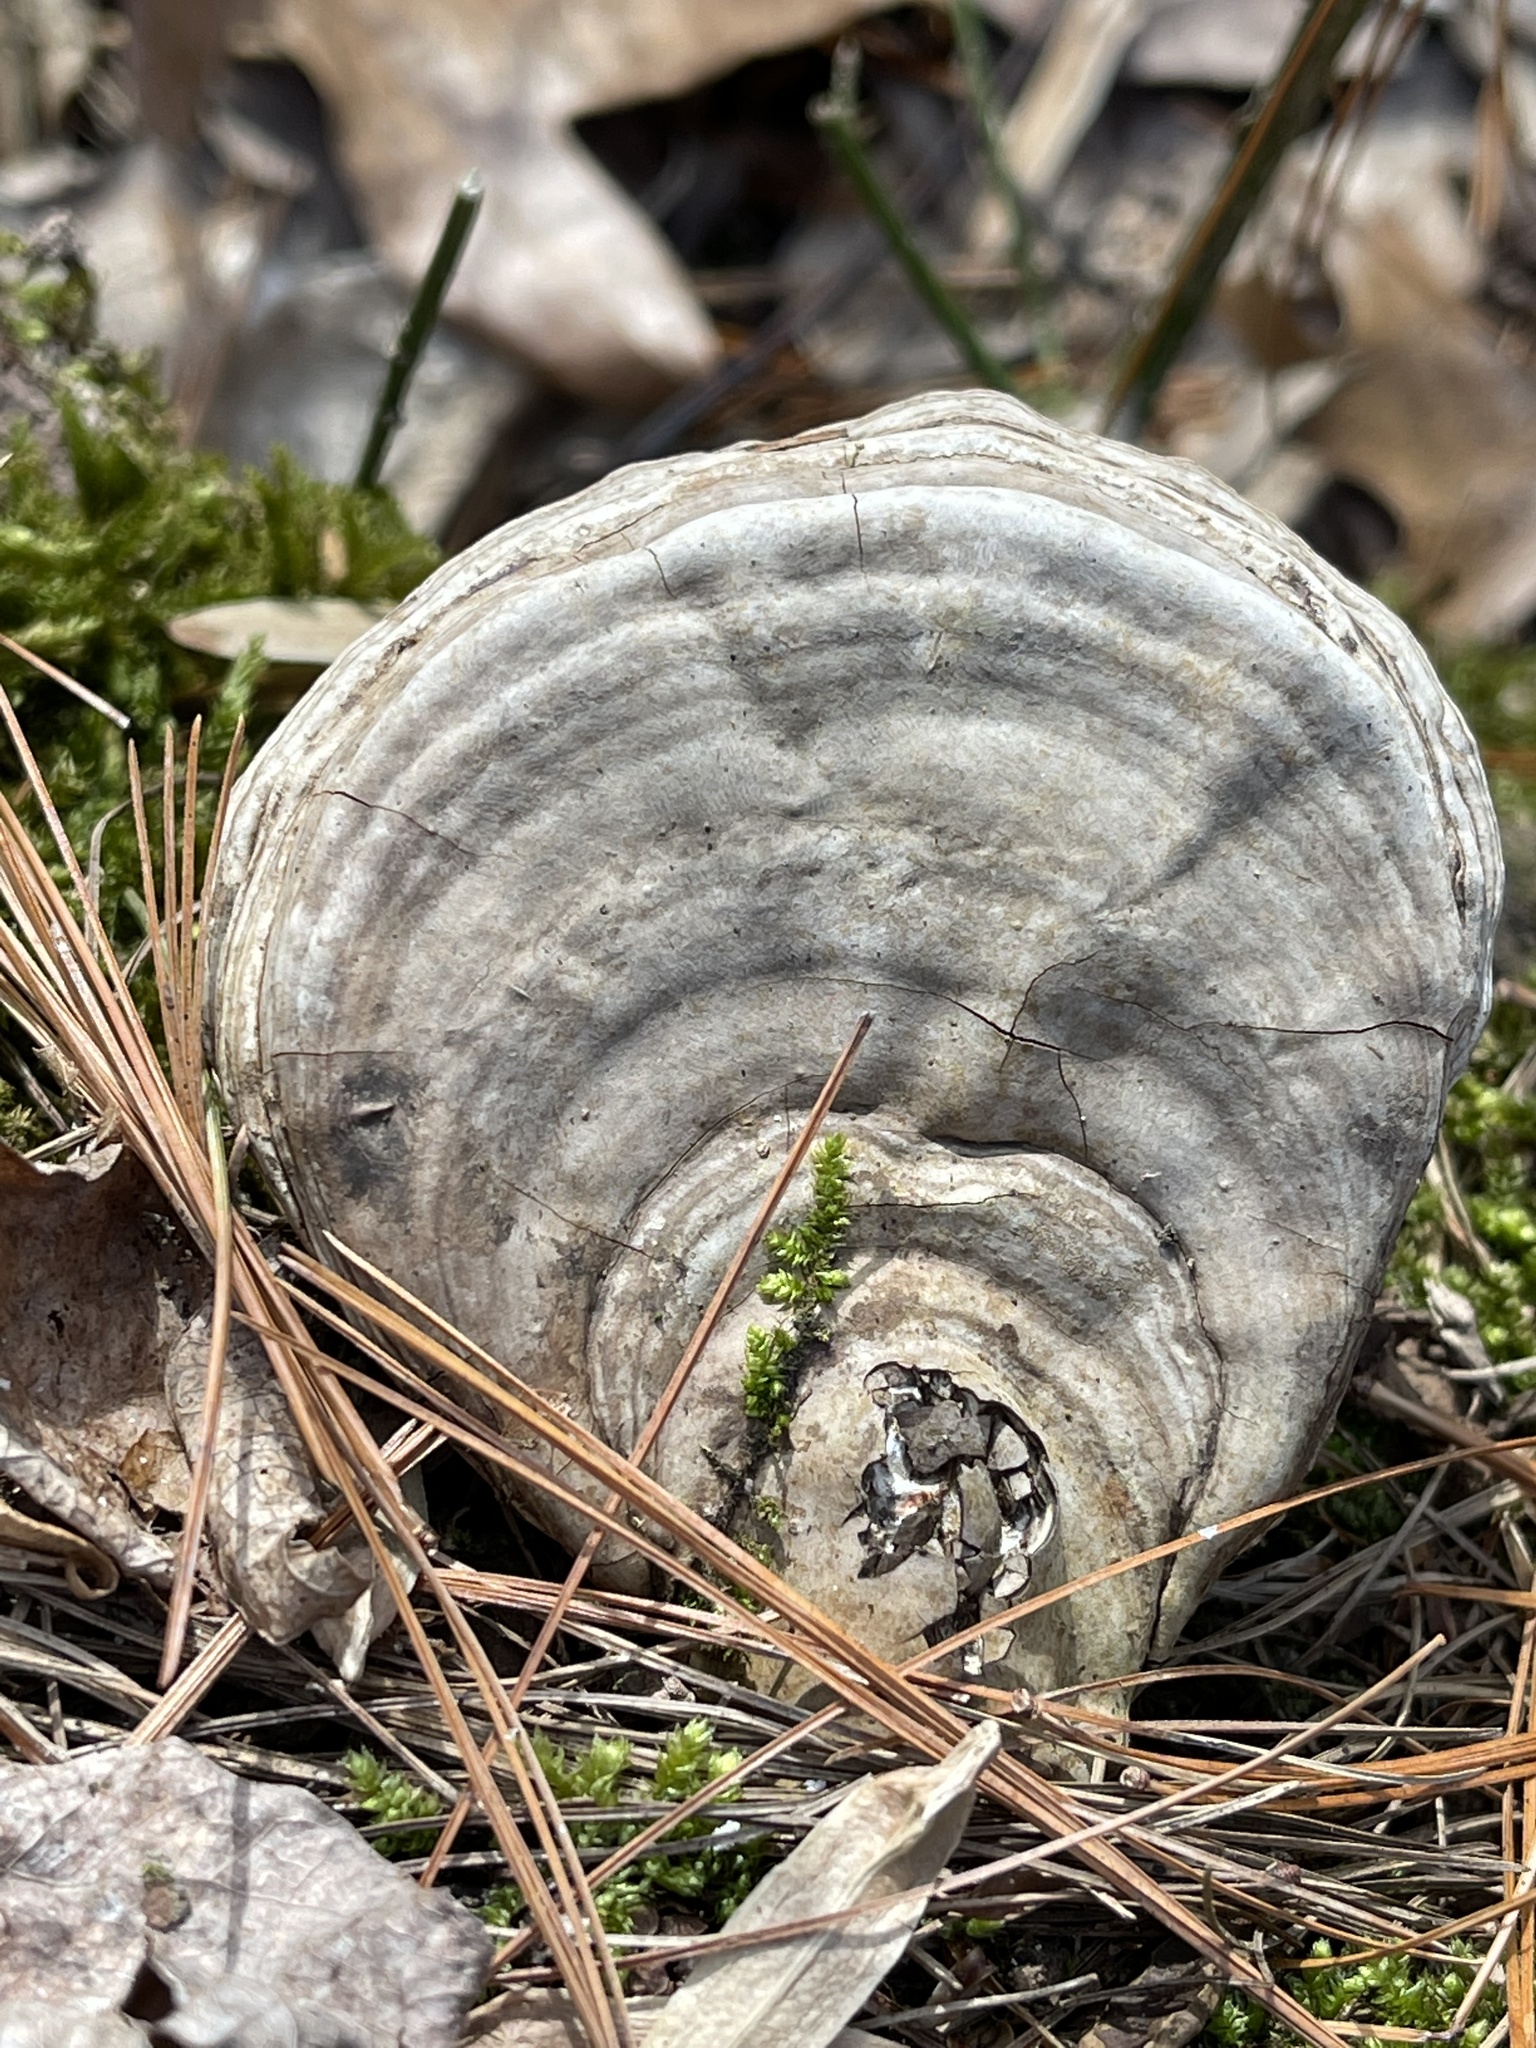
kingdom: Fungi
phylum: Basidiomycota
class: Agaricomycetes
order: Polyporales
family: Polyporaceae
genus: Ganoderma
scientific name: Ganoderma lobatum
